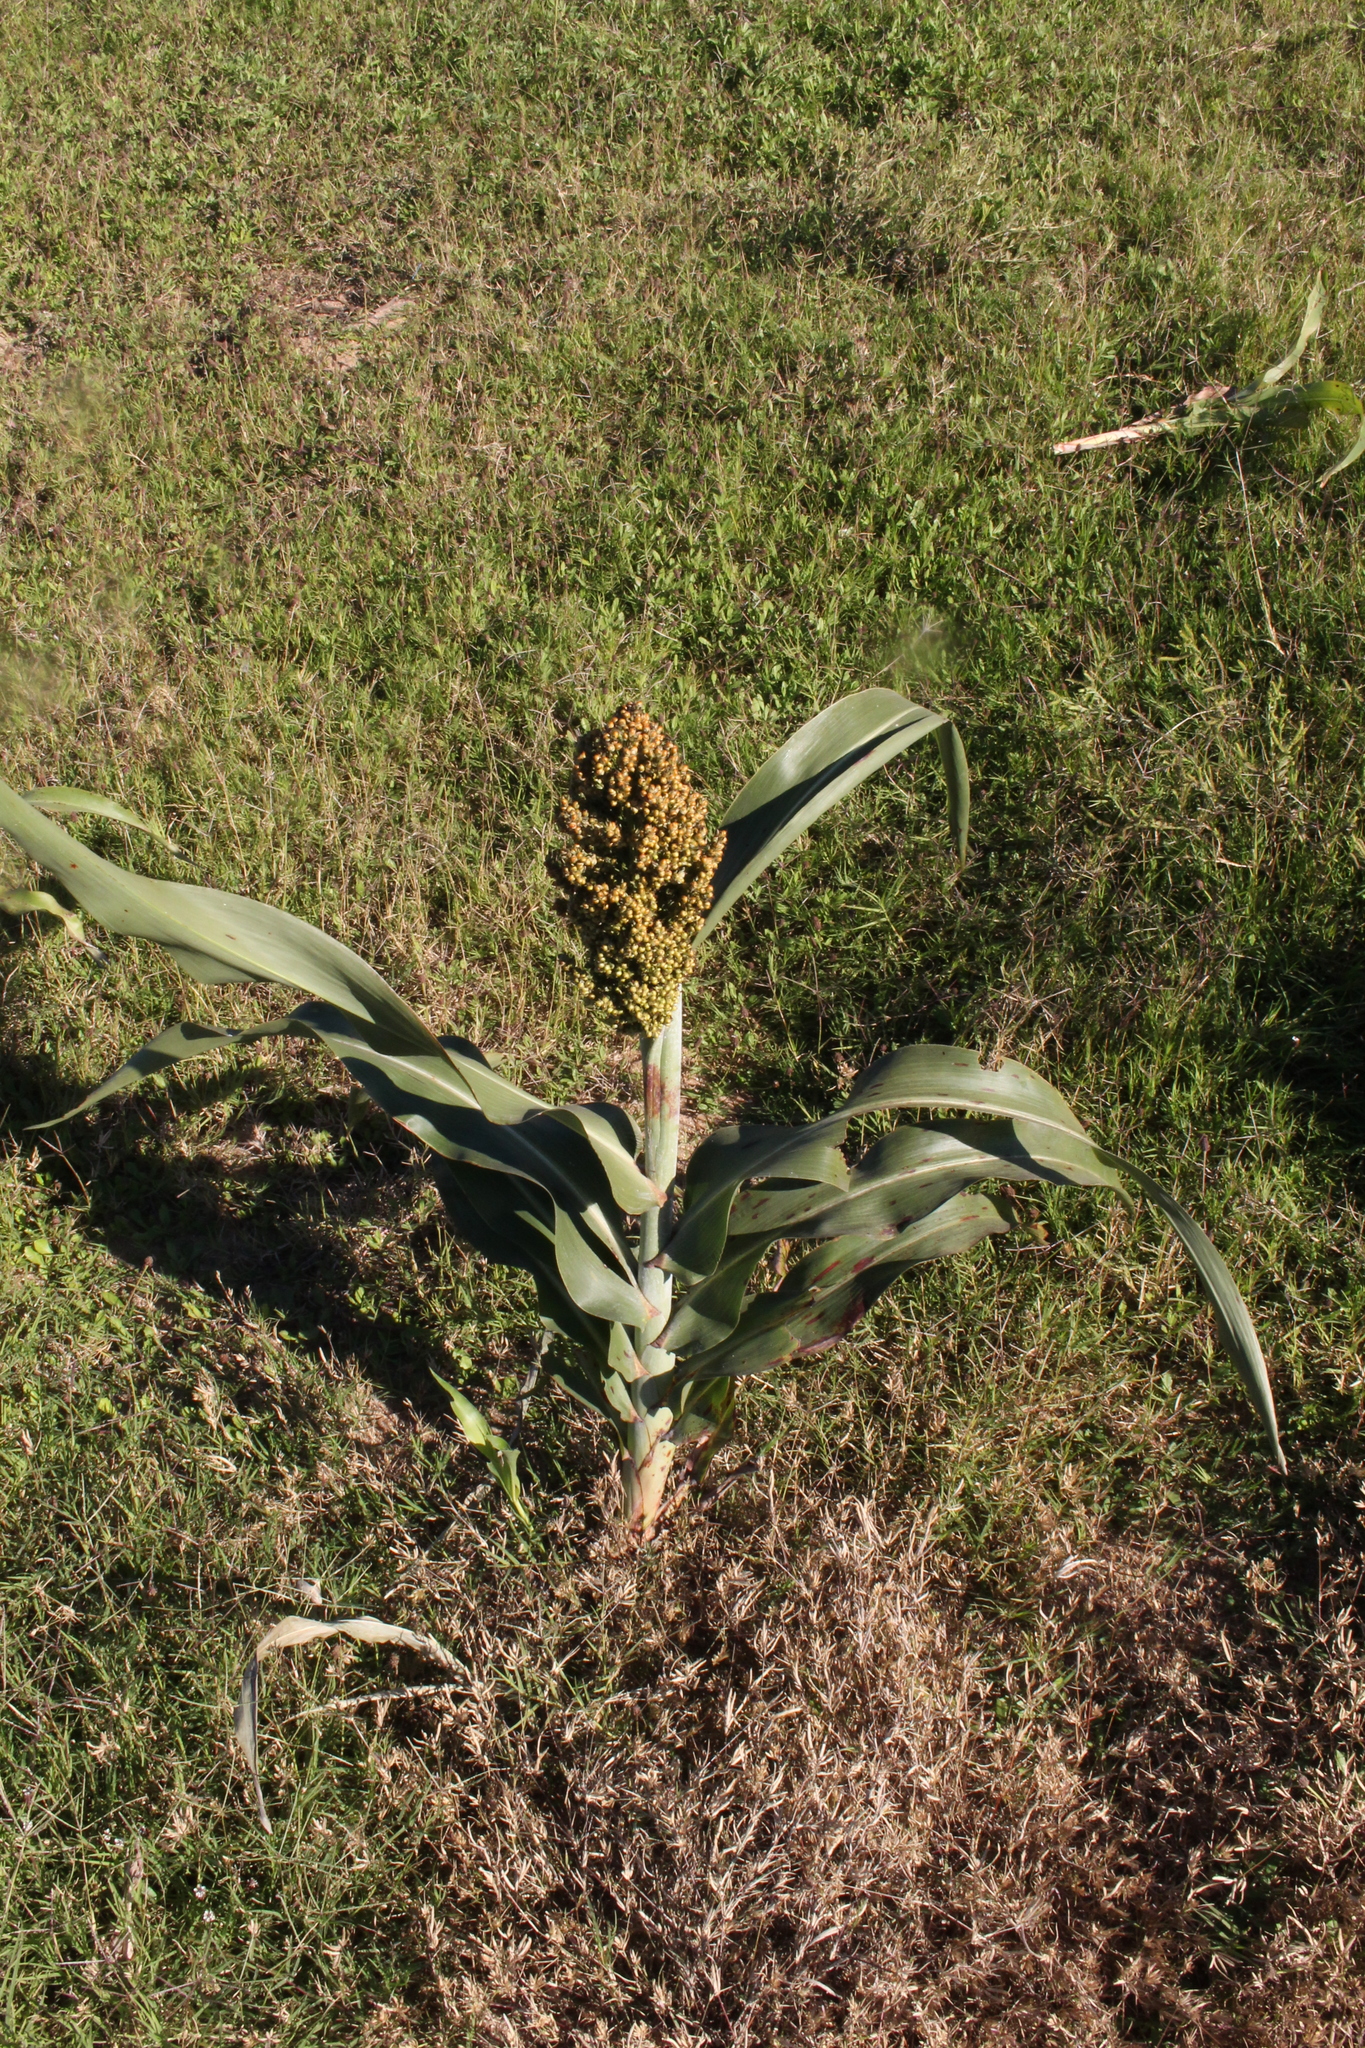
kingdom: Plantae
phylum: Tracheophyta
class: Liliopsida
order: Poales
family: Poaceae
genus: Sorghum
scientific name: Sorghum bicolor
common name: Sorghum
